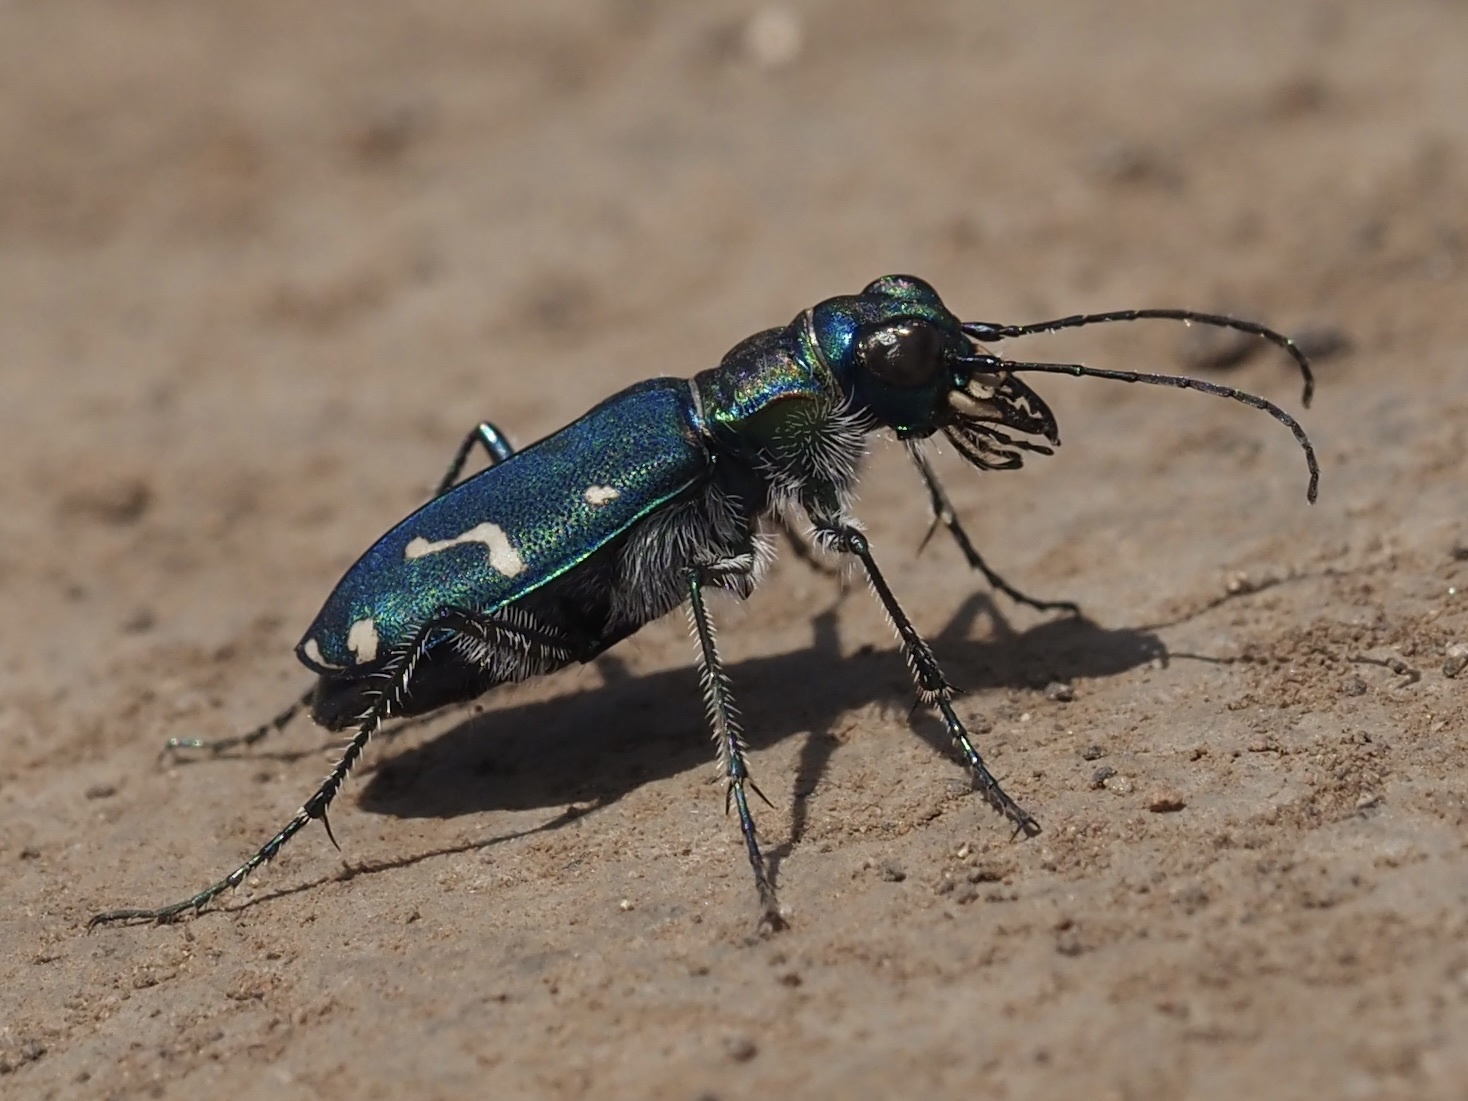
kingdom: Animalia
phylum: Arthropoda
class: Insecta
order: Coleoptera
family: Carabidae
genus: Cicindela
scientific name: Cicindela depressula
